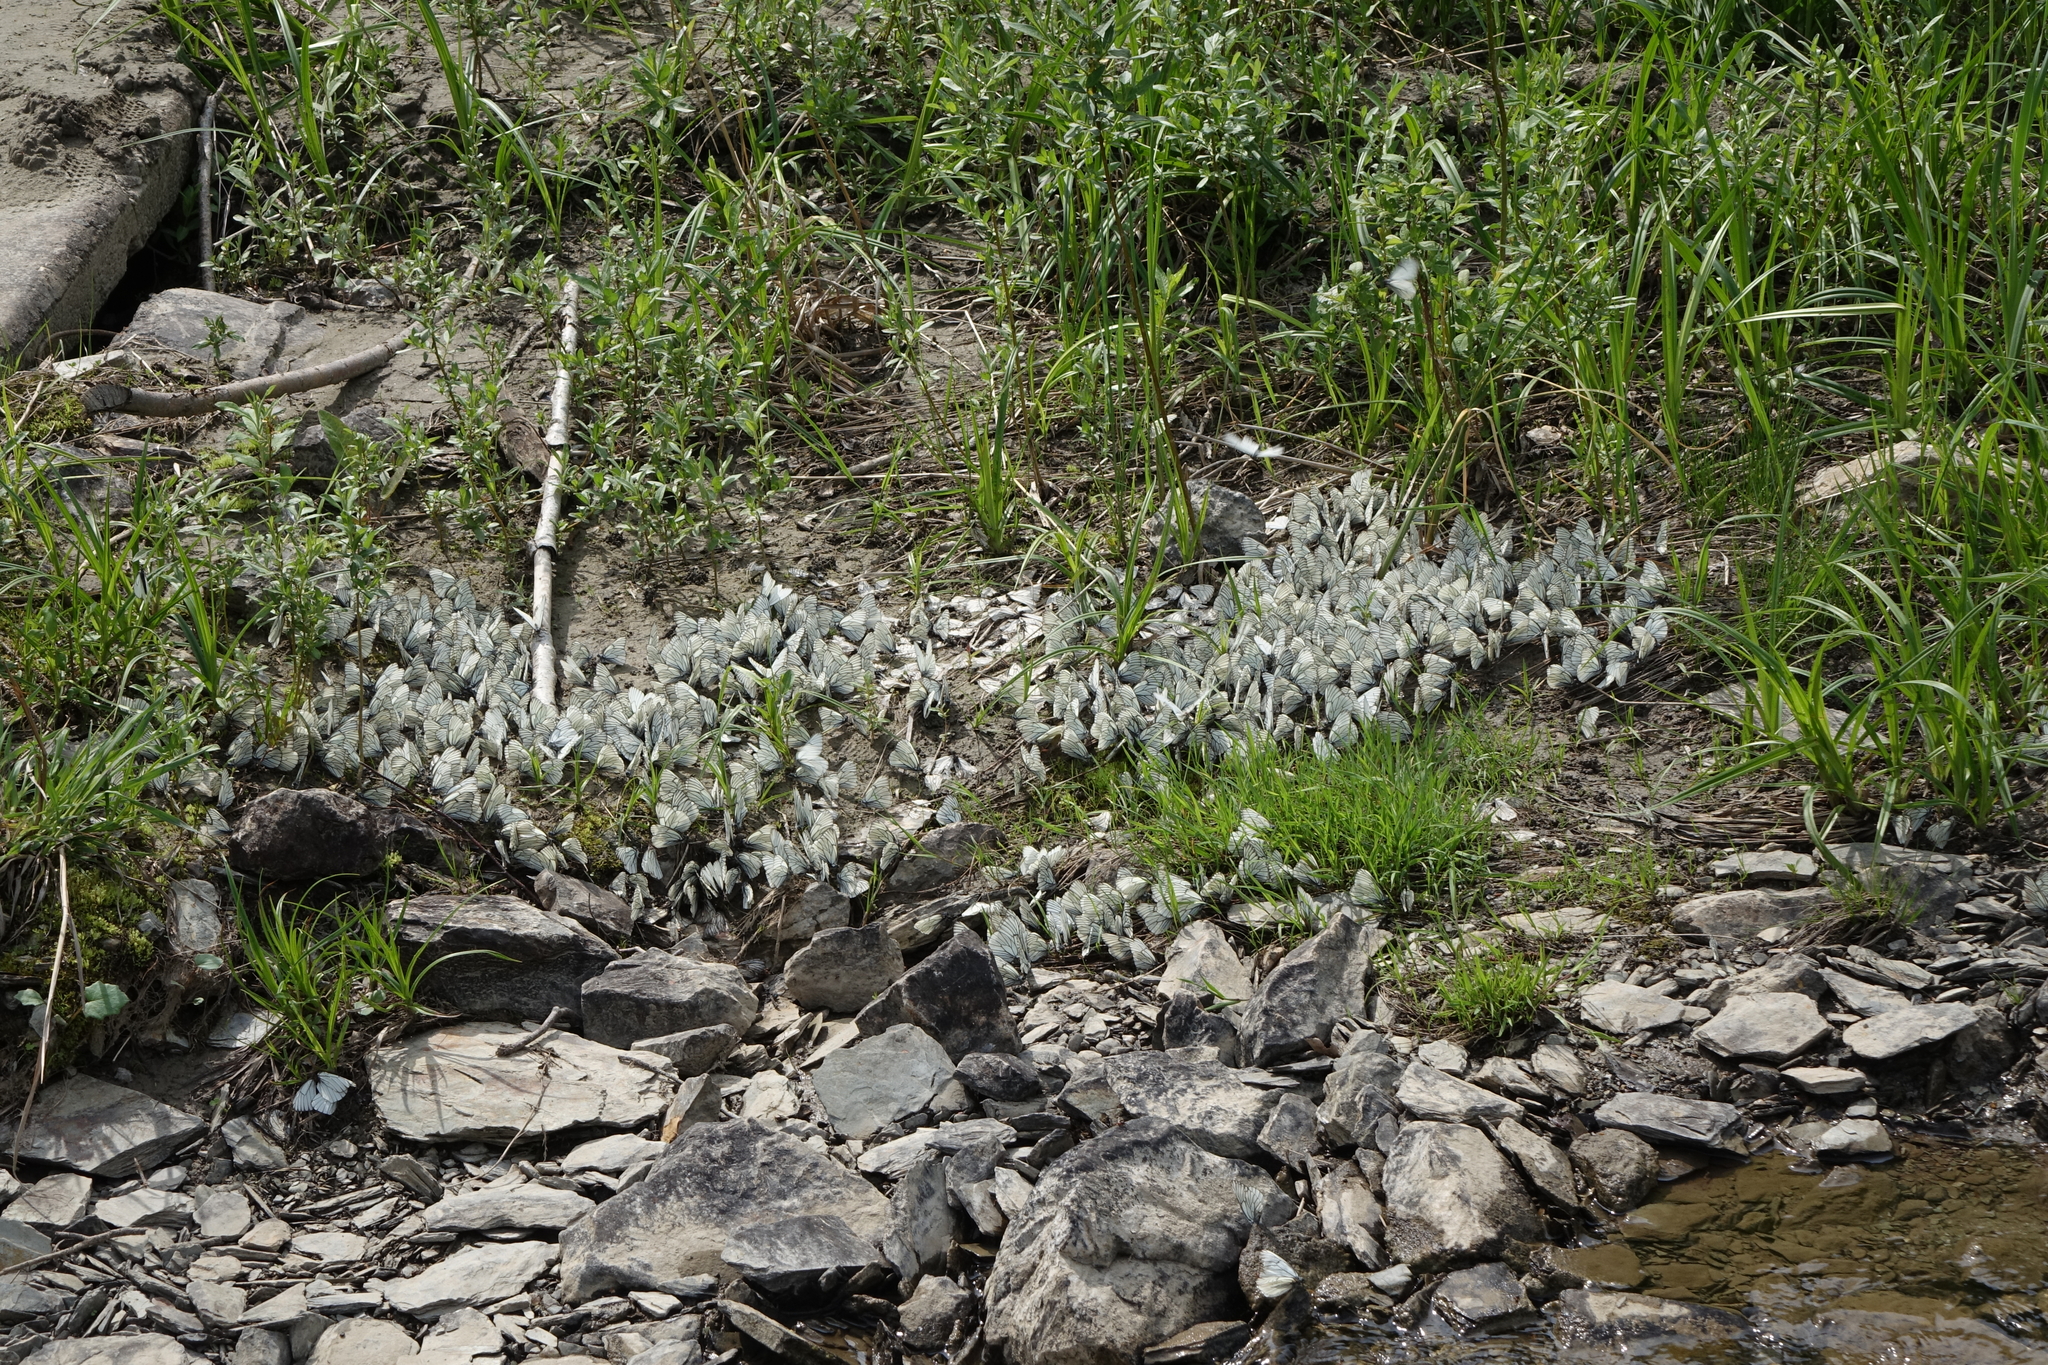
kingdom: Animalia
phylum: Arthropoda
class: Insecta
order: Lepidoptera
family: Pieridae
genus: Aporia
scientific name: Aporia crataegi
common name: Black-veined white
